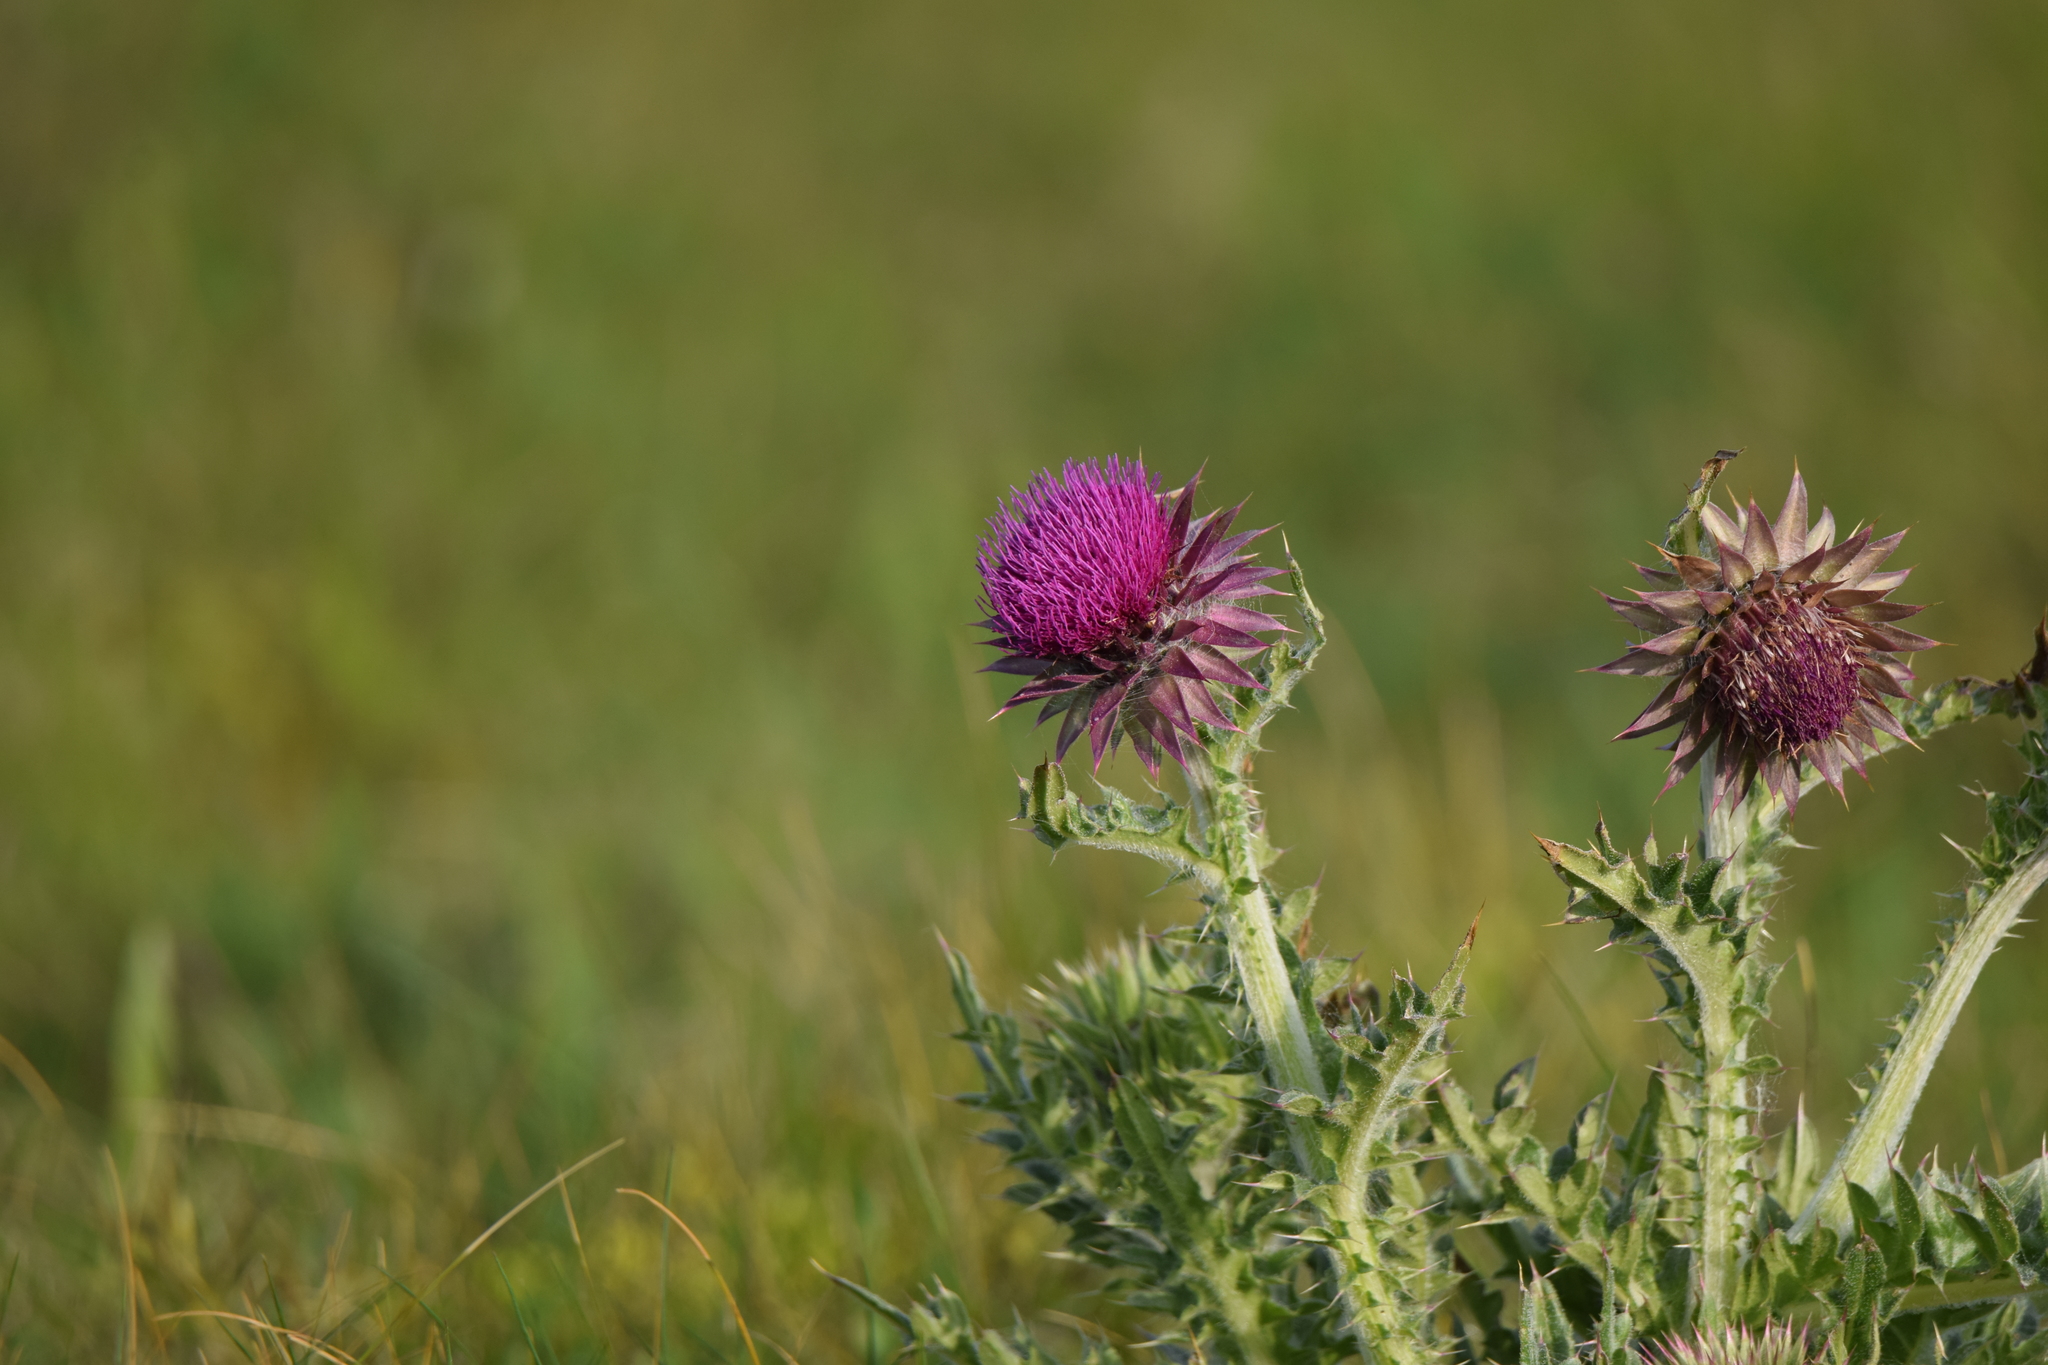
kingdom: Plantae
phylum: Tracheophyta
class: Magnoliopsida
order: Asterales
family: Asteraceae
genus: Carduus
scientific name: Carduus nutans
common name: Musk thistle
